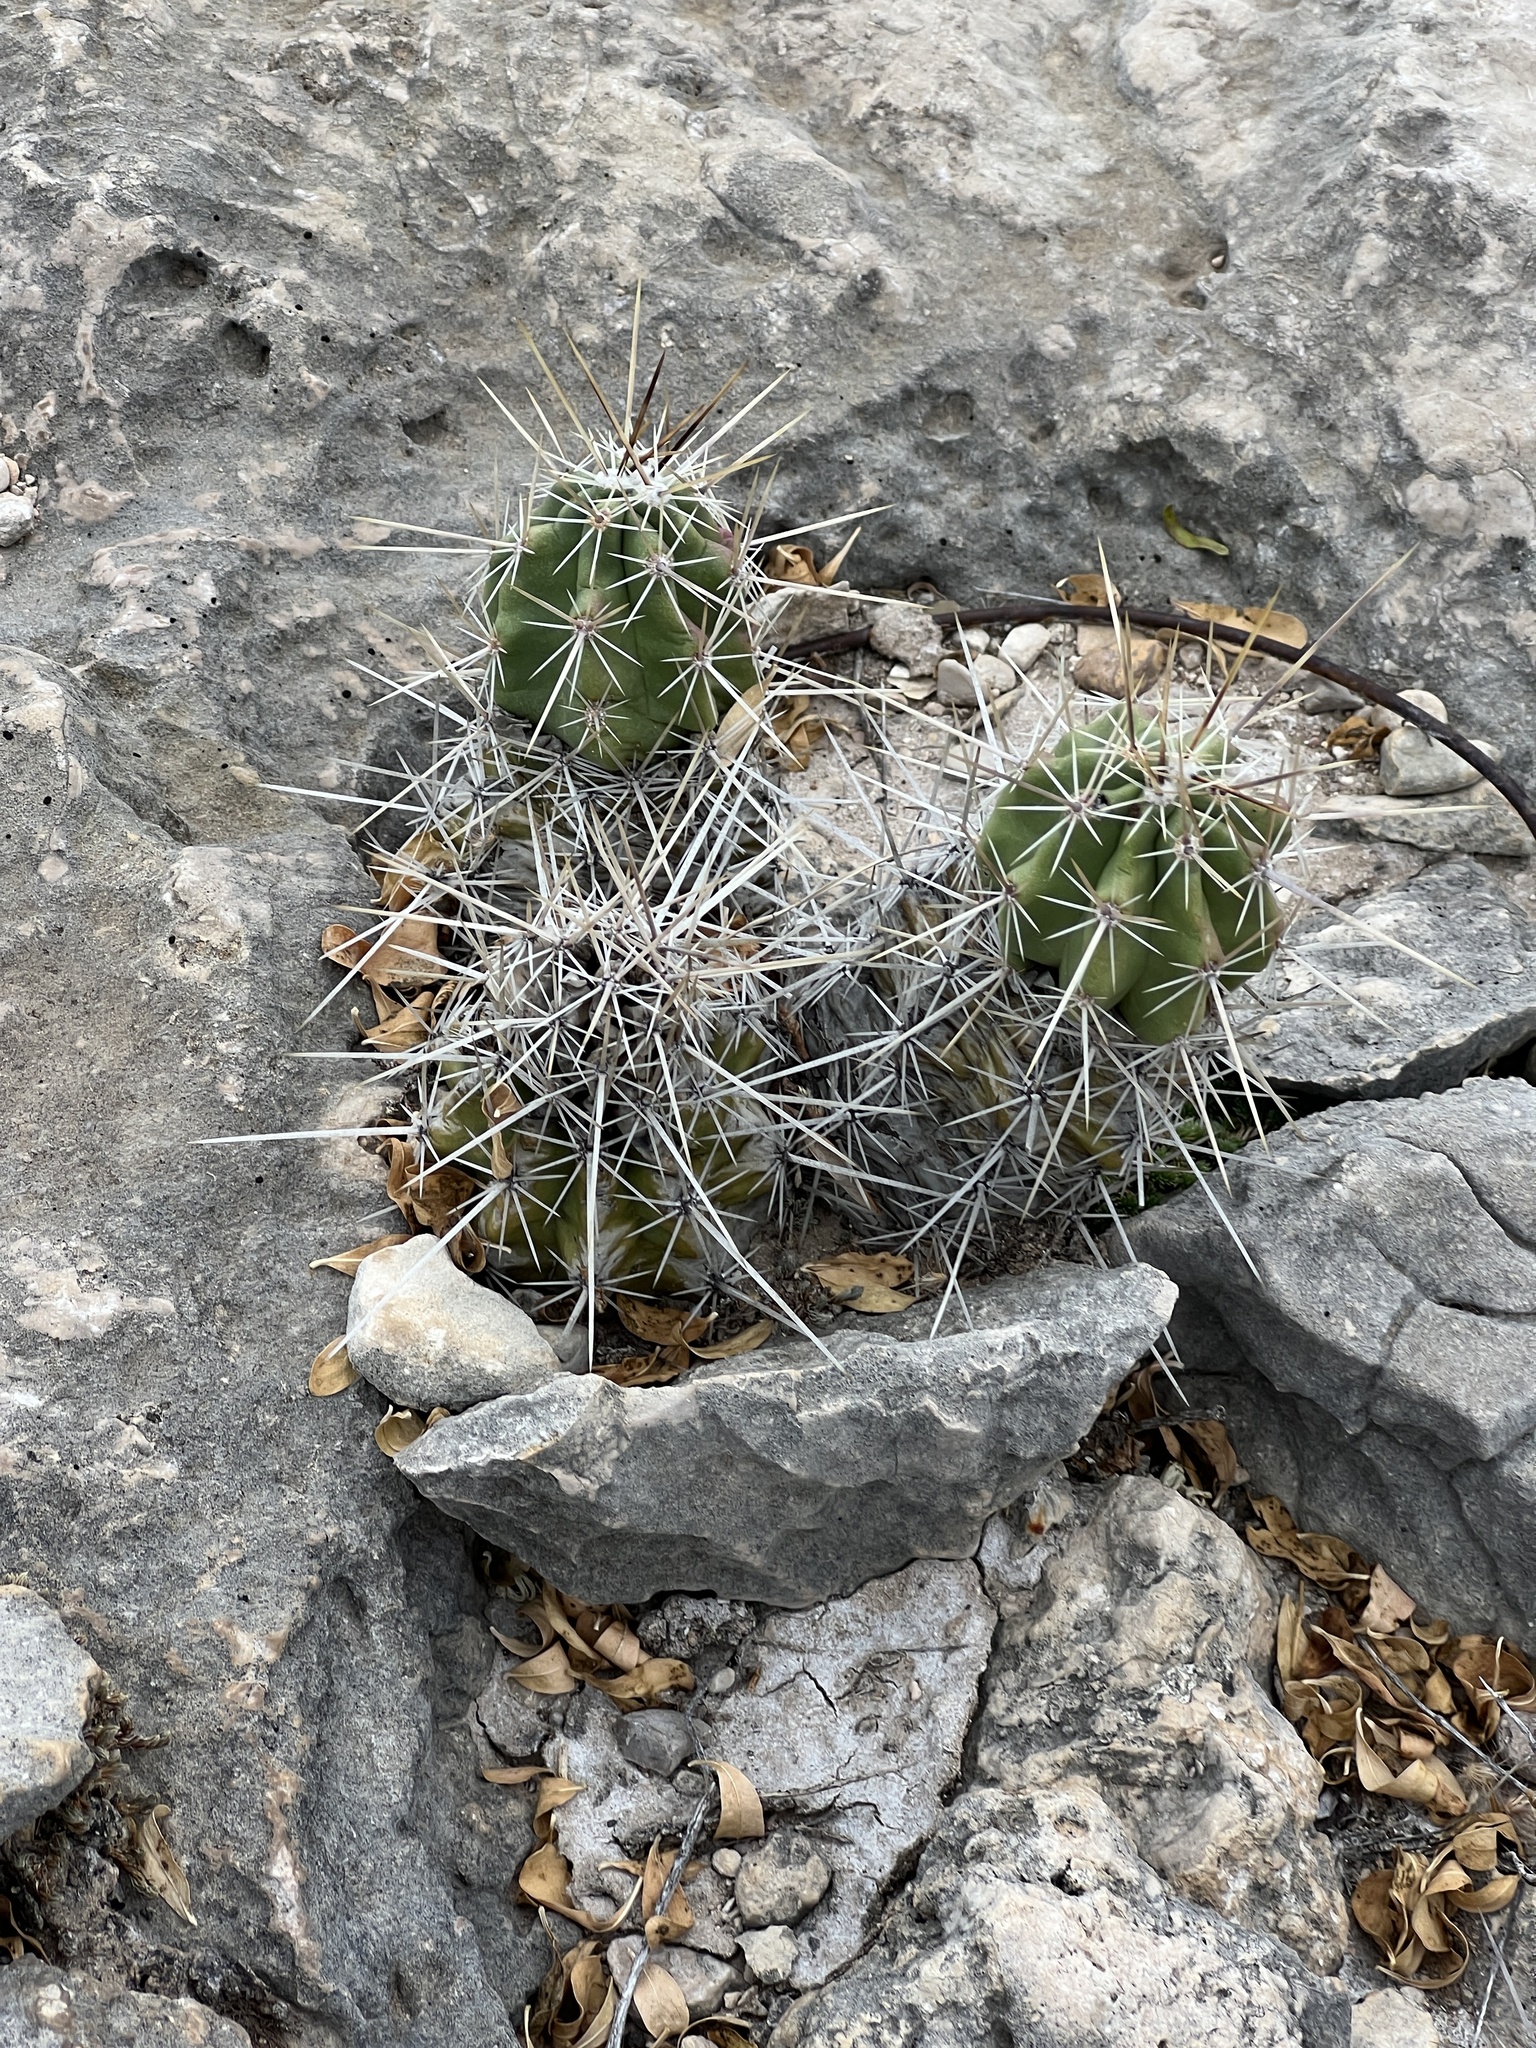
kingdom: Plantae
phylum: Tracheophyta
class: Magnoliopsida
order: Caryophyllales
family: Cactaceae
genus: Echinocereus
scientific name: Echinocereus enneacanthus
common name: Pitaya
